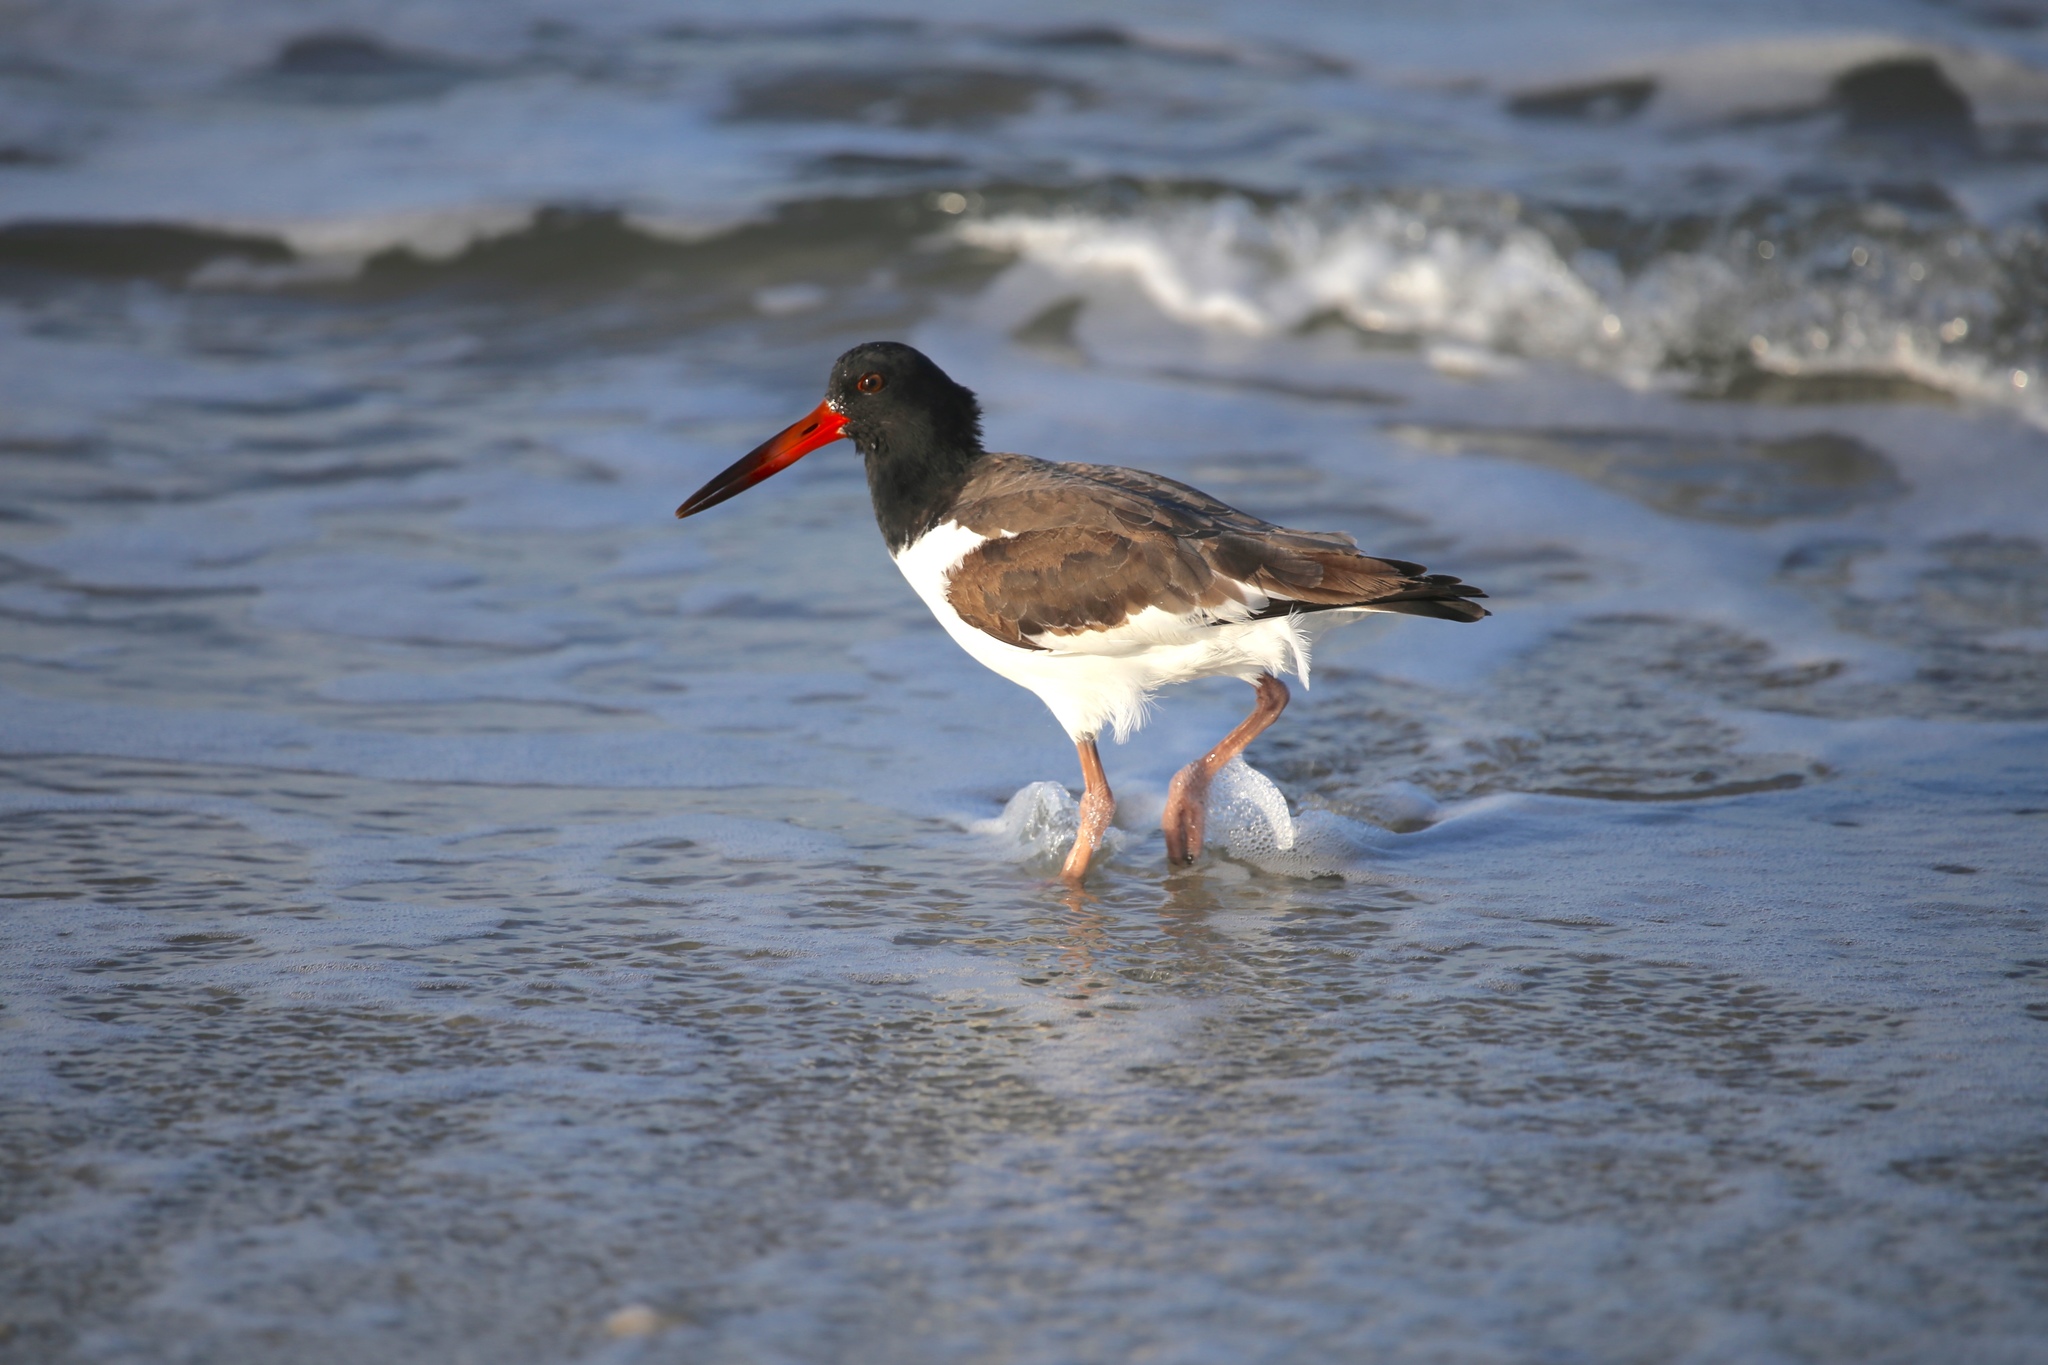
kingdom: Animalia
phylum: Chordata
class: Aves
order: Charadriiformes
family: Haematopodidae
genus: Haematopus
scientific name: Haematopus palliatus
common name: American oystercatcher
